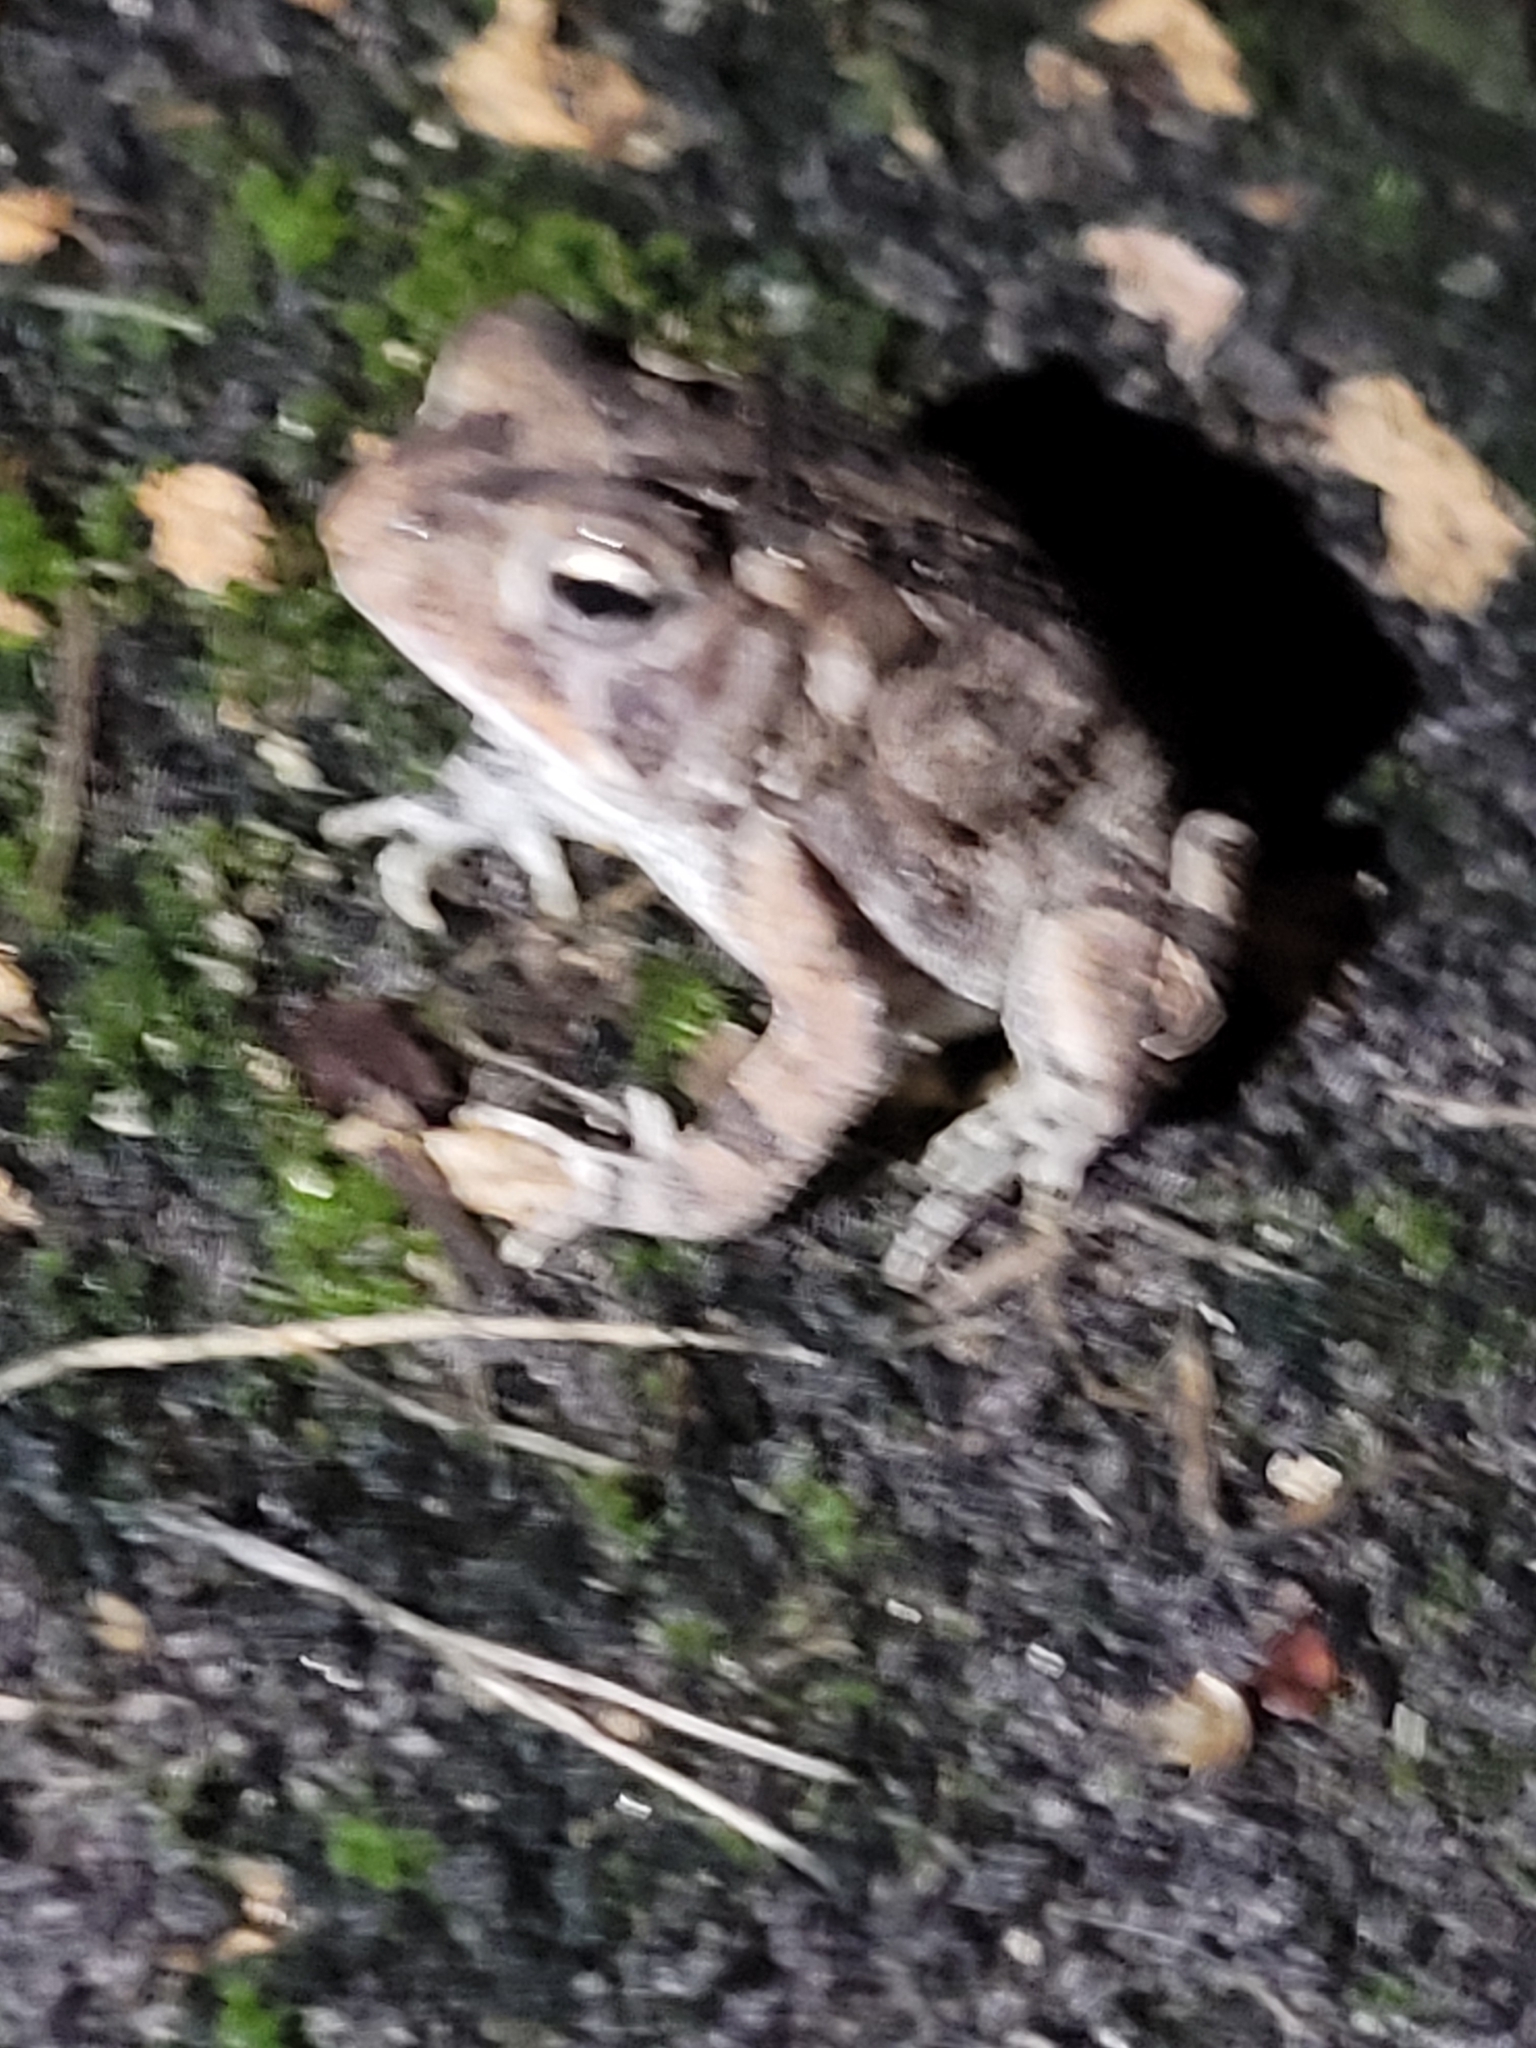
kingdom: Animalia
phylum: Chordata
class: Amphibia
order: Anura
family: Bufonidae
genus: Anaxyrus
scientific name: Anaxyrus terrestris
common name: Southern toad
